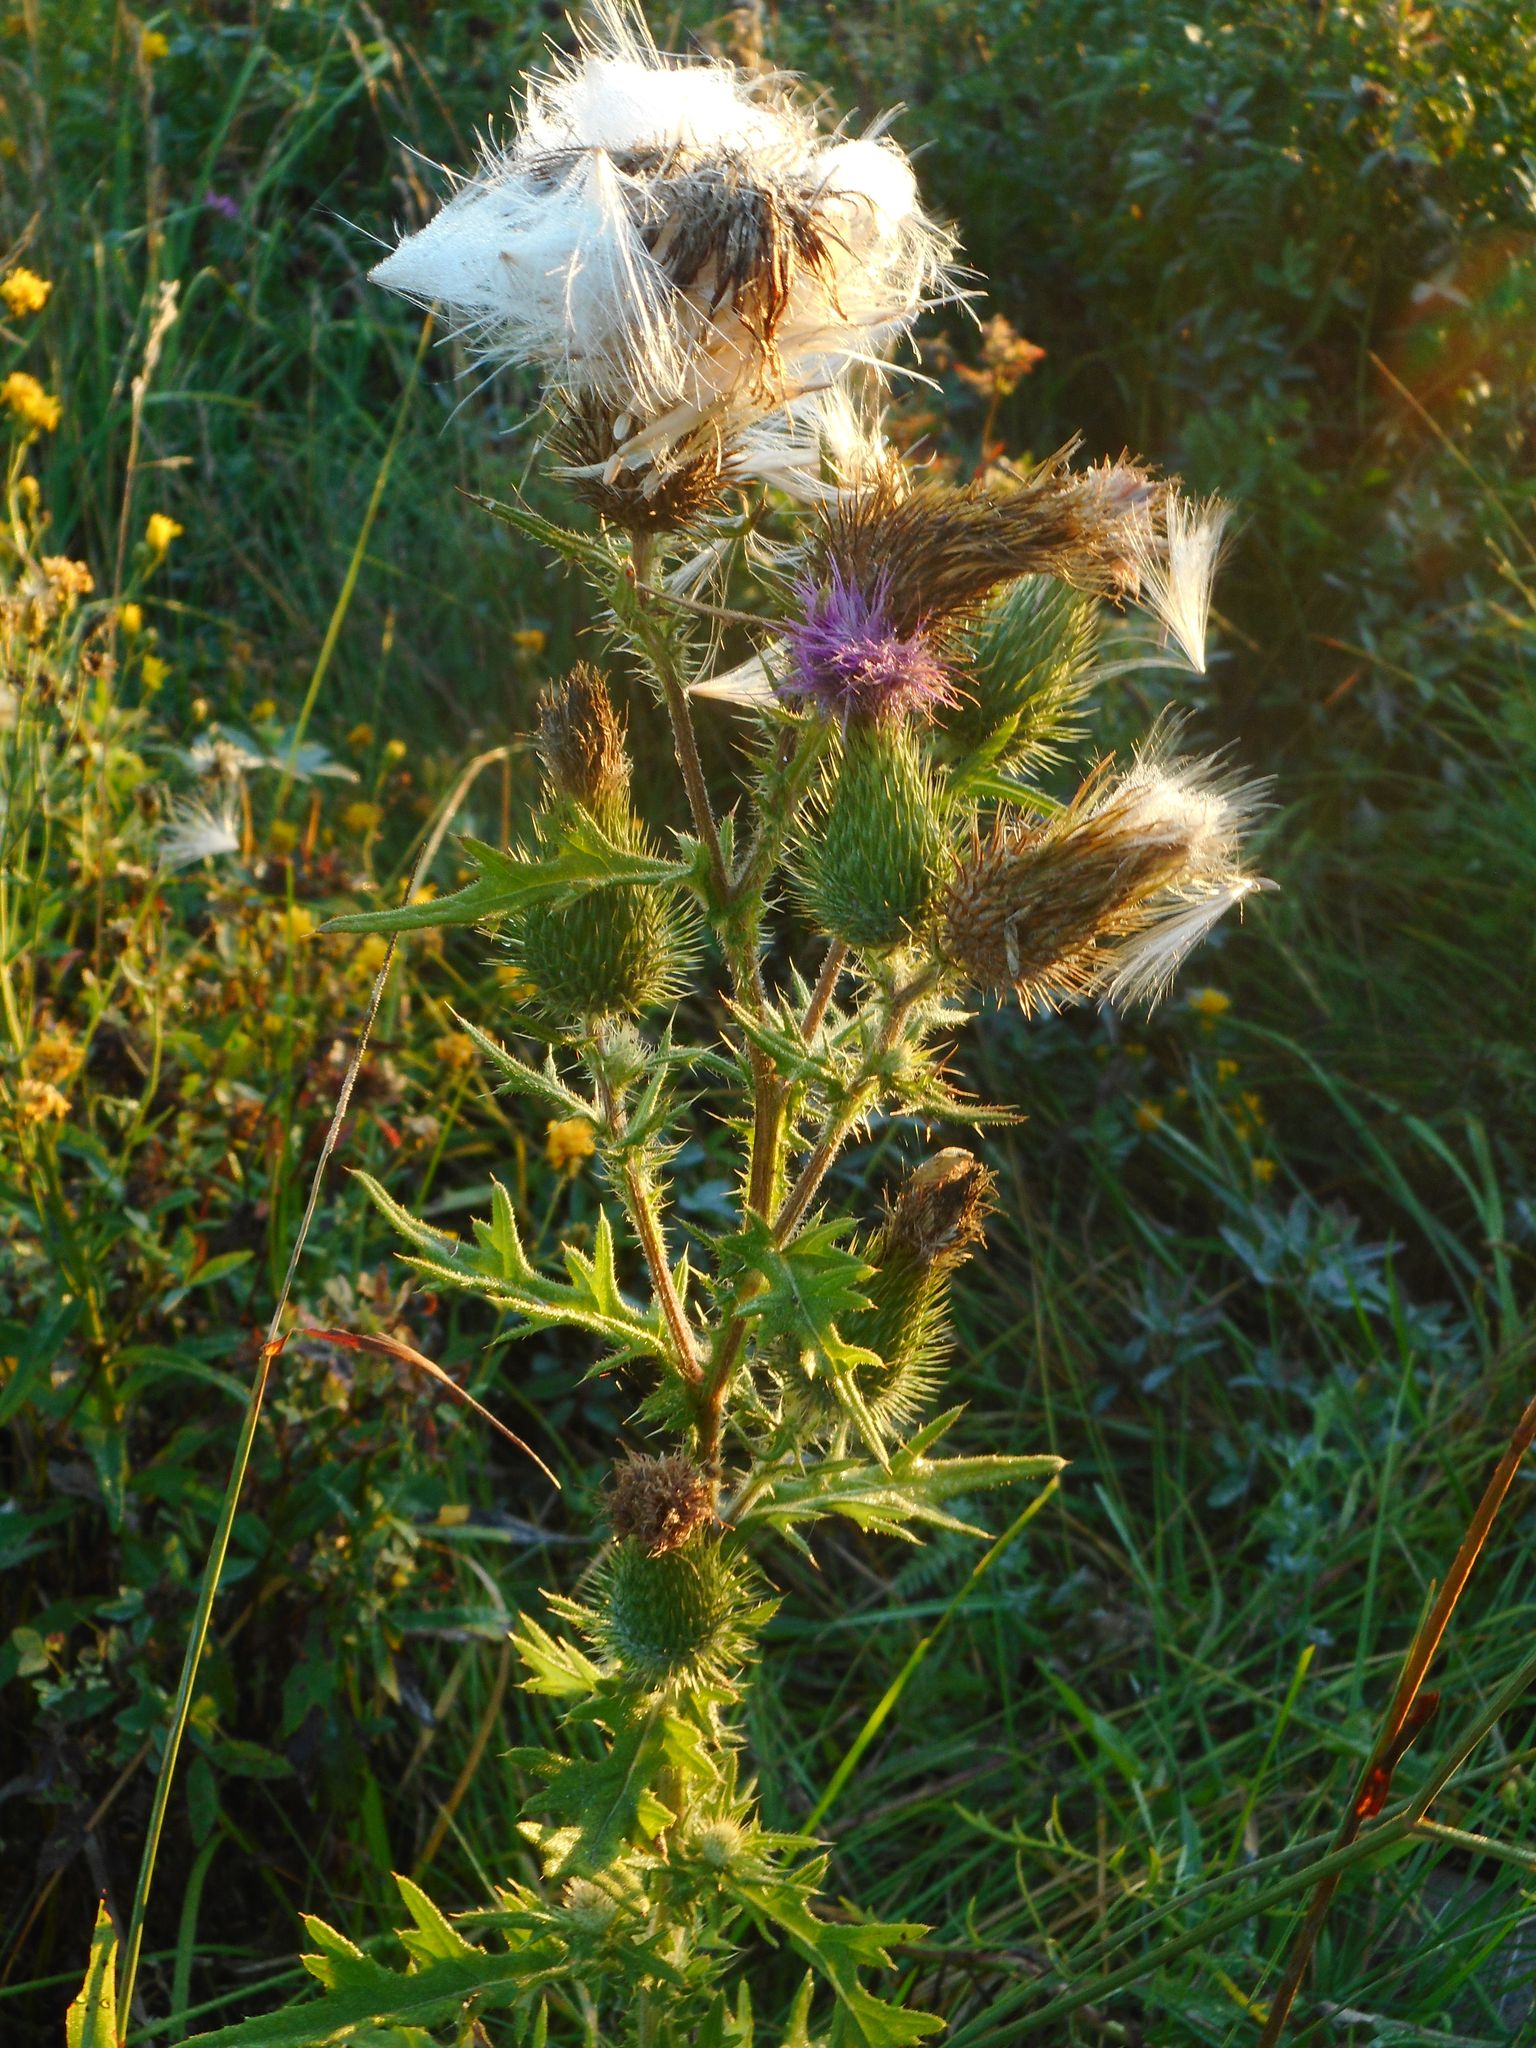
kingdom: Plantae
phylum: Tracheophyta
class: Magnoliopsida
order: Asterales
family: Asteraceae
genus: Cirsium
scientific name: Cirsium vulgare
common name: Bull thistle
